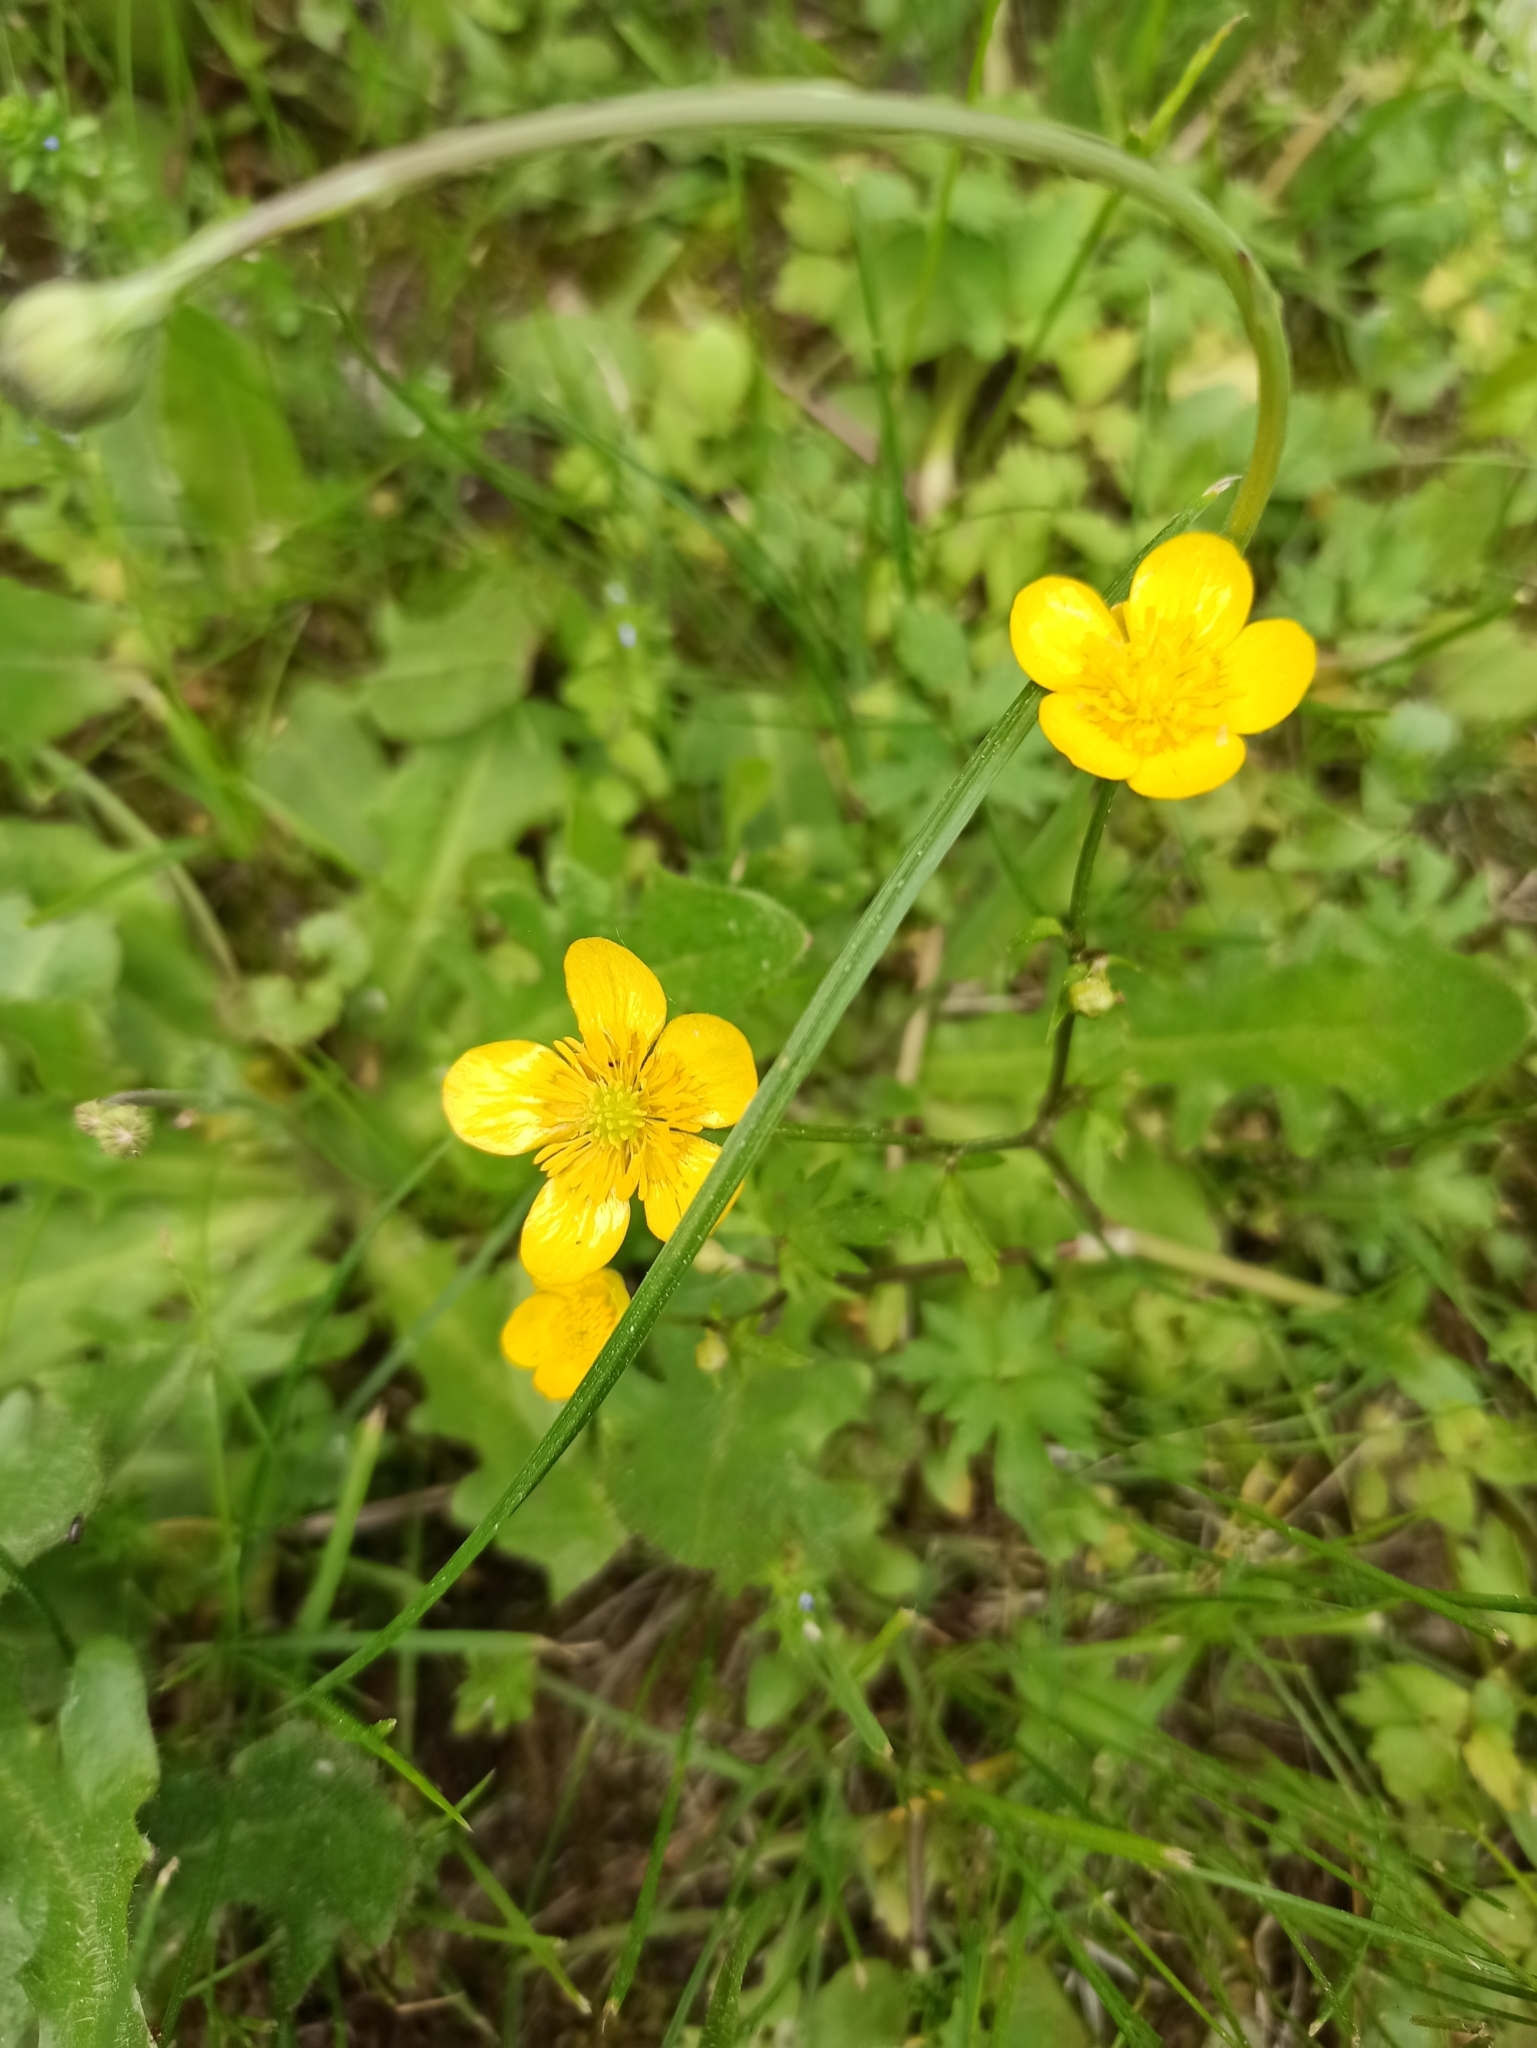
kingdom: Plantae
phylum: Tracheophyta
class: Magnoliopsida
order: Ranunculales
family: Ranunculaceae
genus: Ranunculus
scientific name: Ranunculus repens
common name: Creeping buttercup
